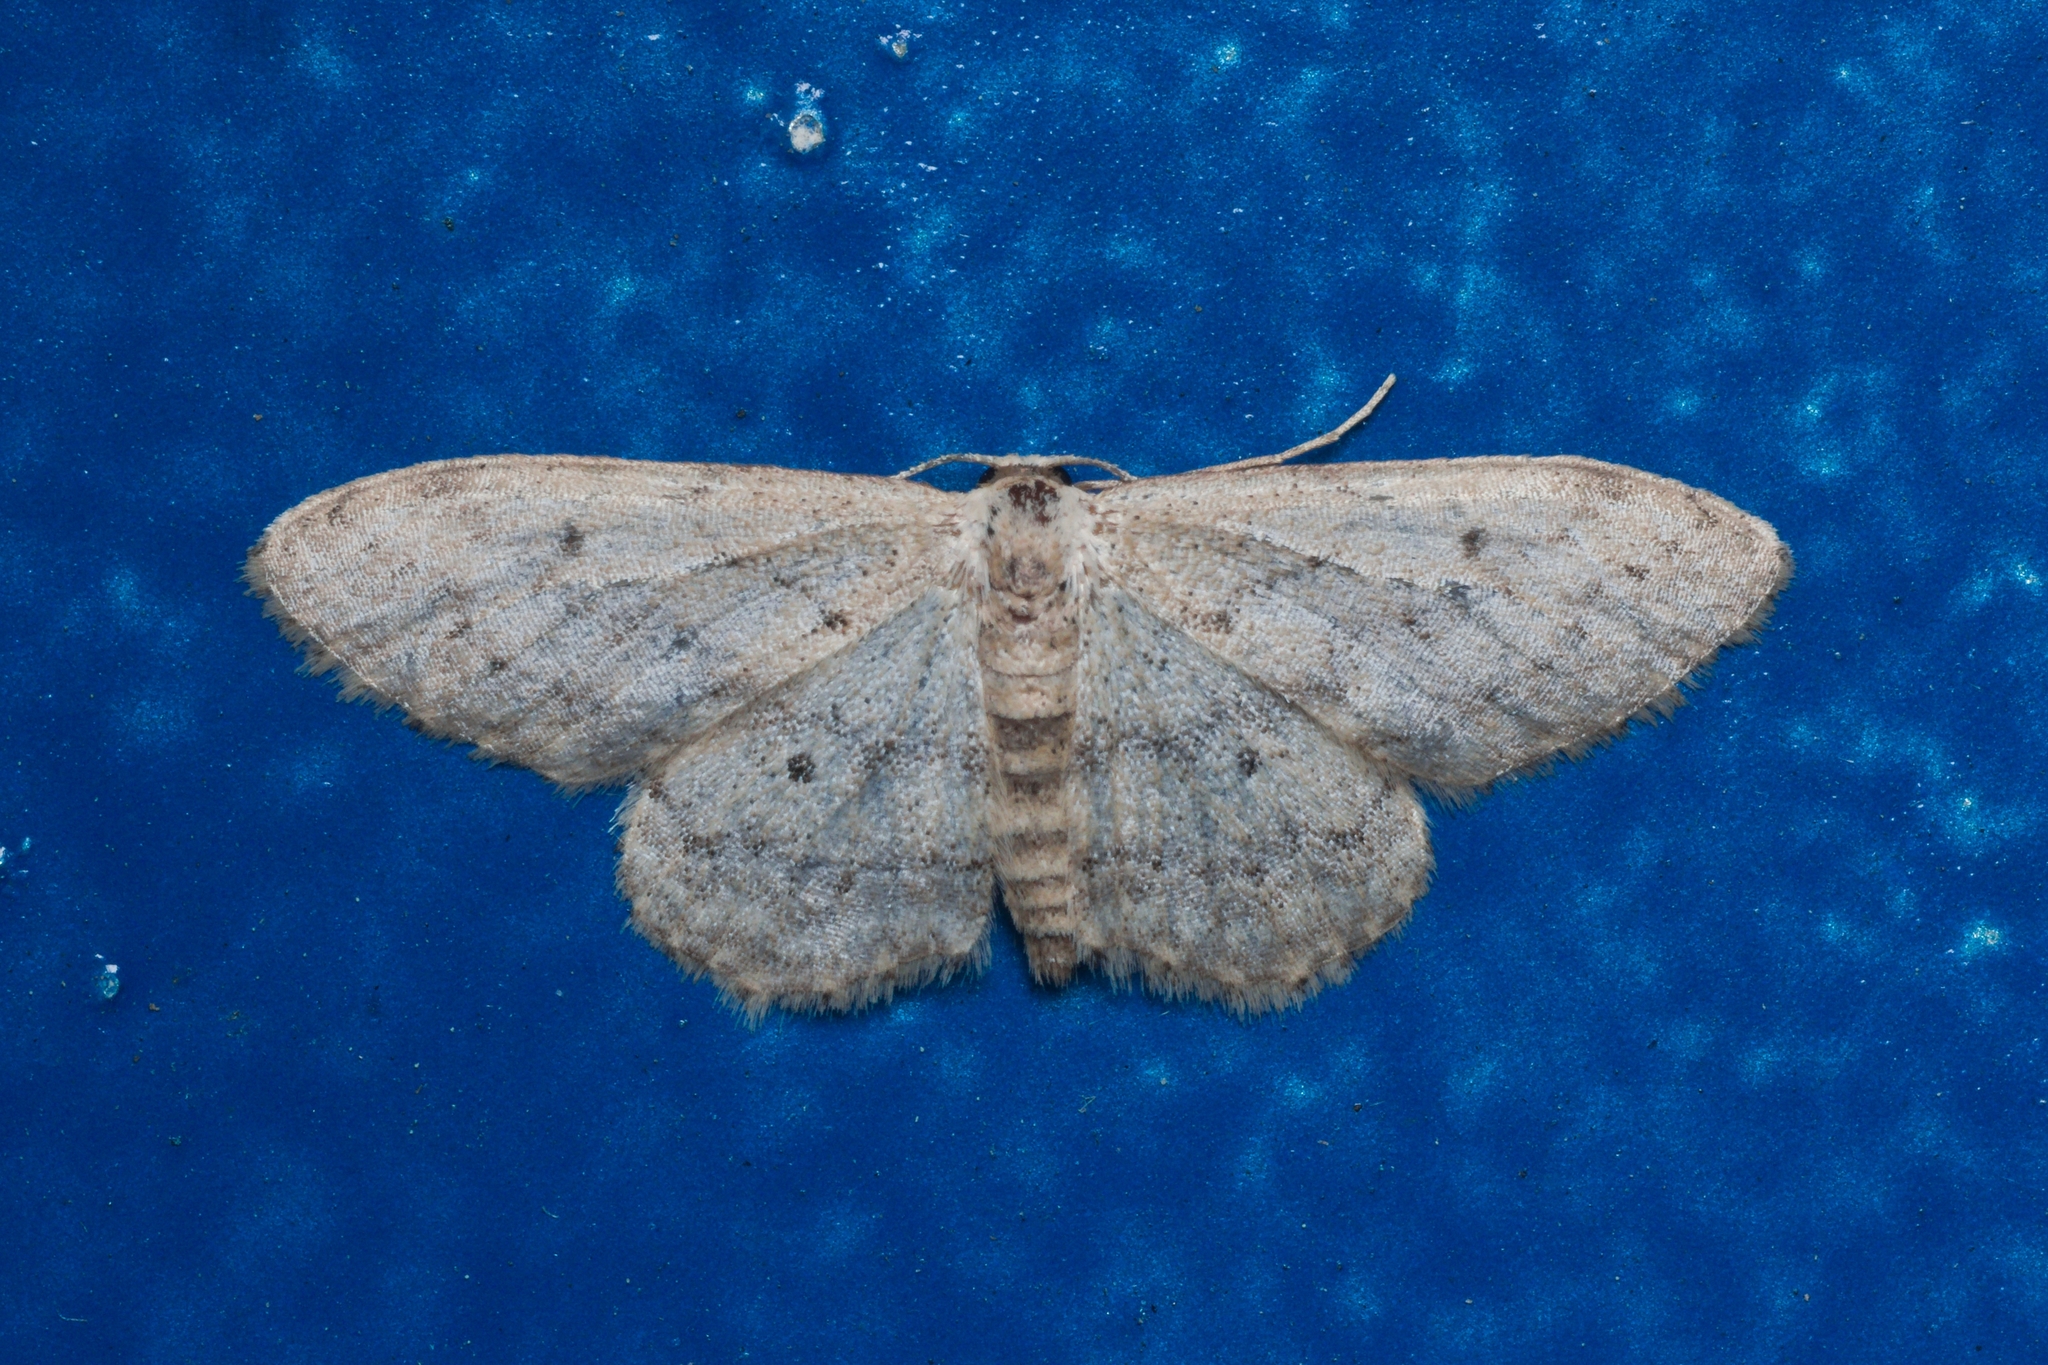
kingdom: Animalia
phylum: Arthropoda
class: Insecta
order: Lepidoptera
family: Geometridae
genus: Idaea
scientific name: Idaea seriata
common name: Small dusty wave
